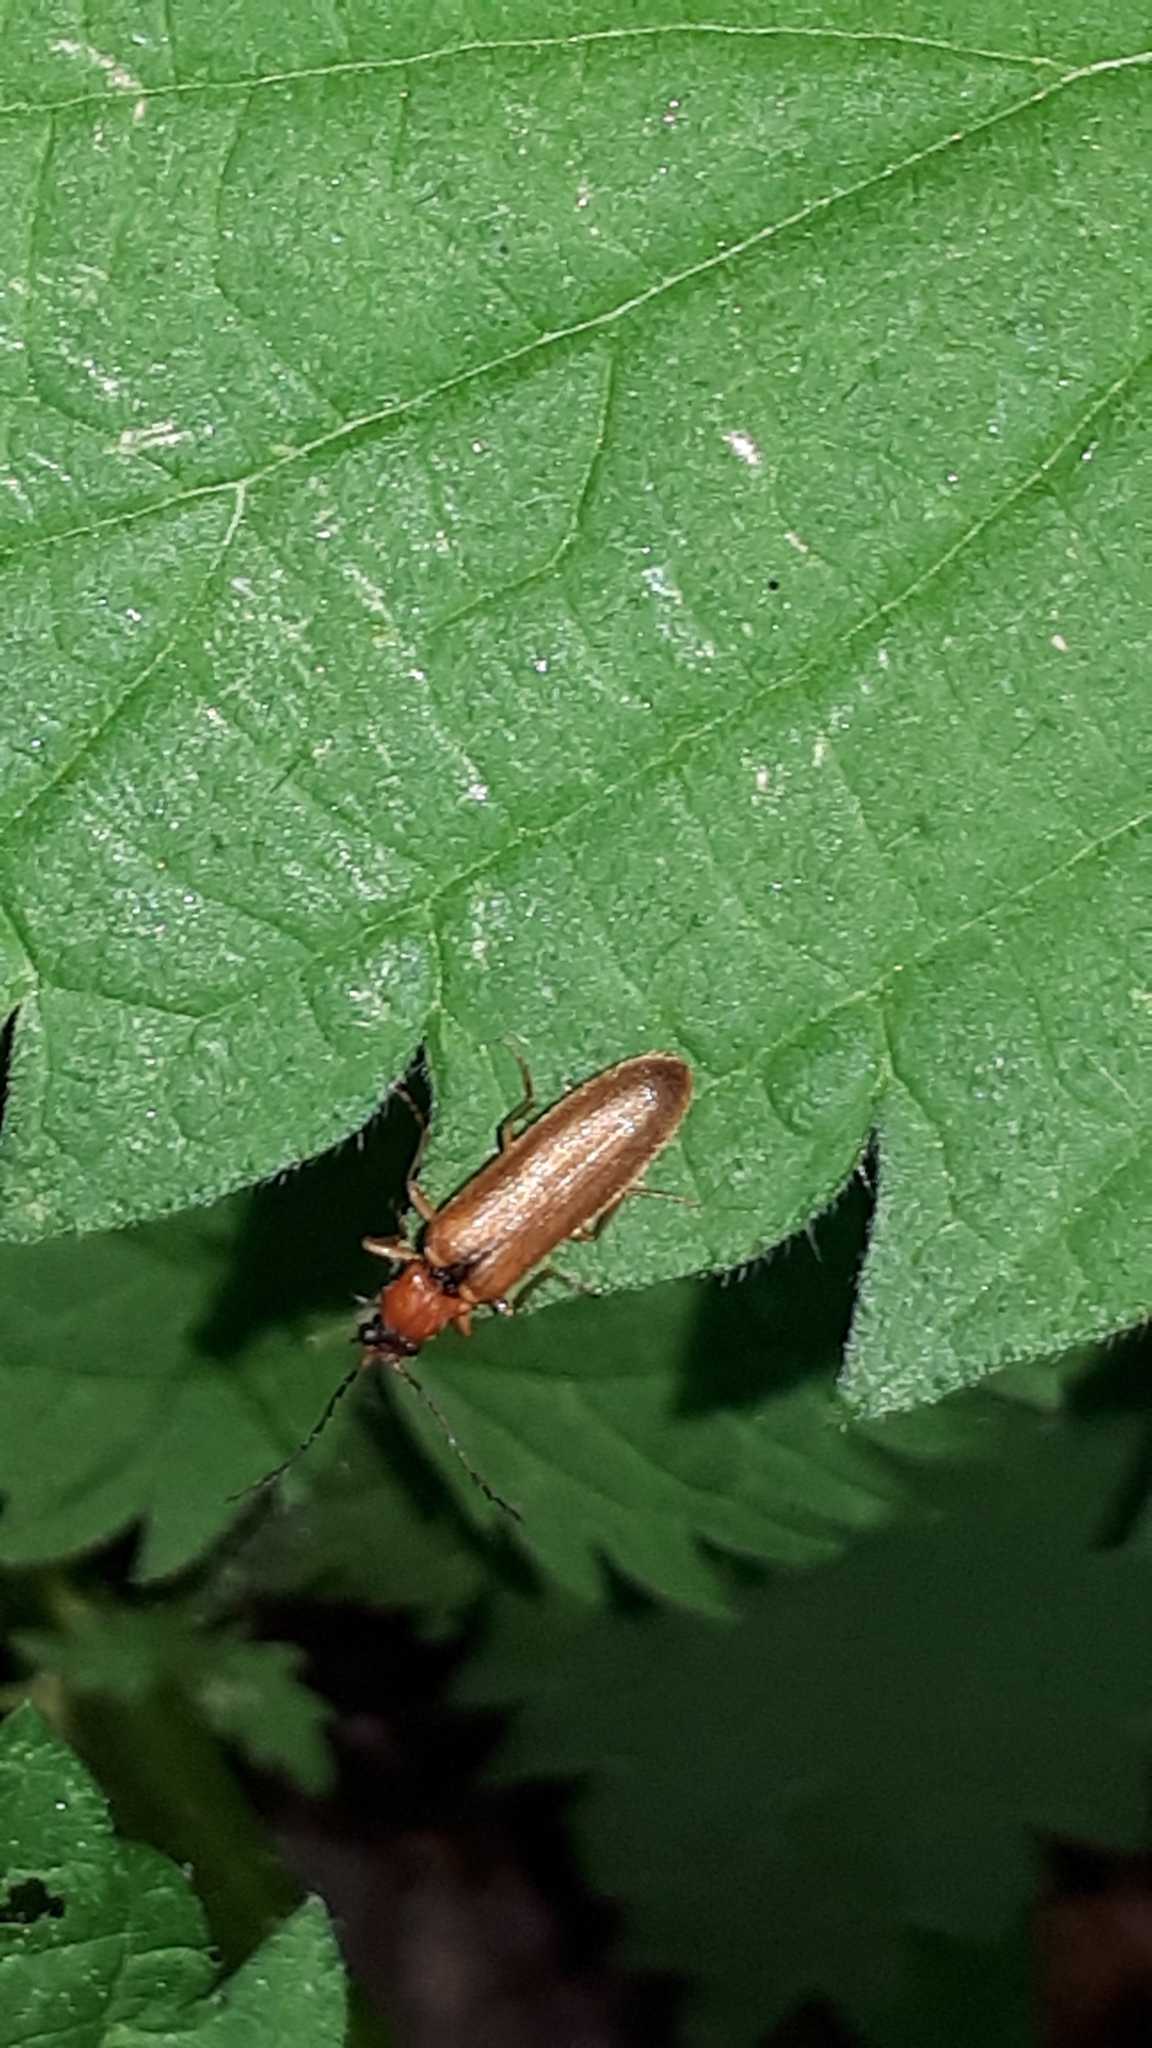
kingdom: Animalia
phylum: Arthropoda
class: Insecta
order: Coleoptera
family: Elateridae
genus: Denticollis
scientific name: Denticollis linearis
